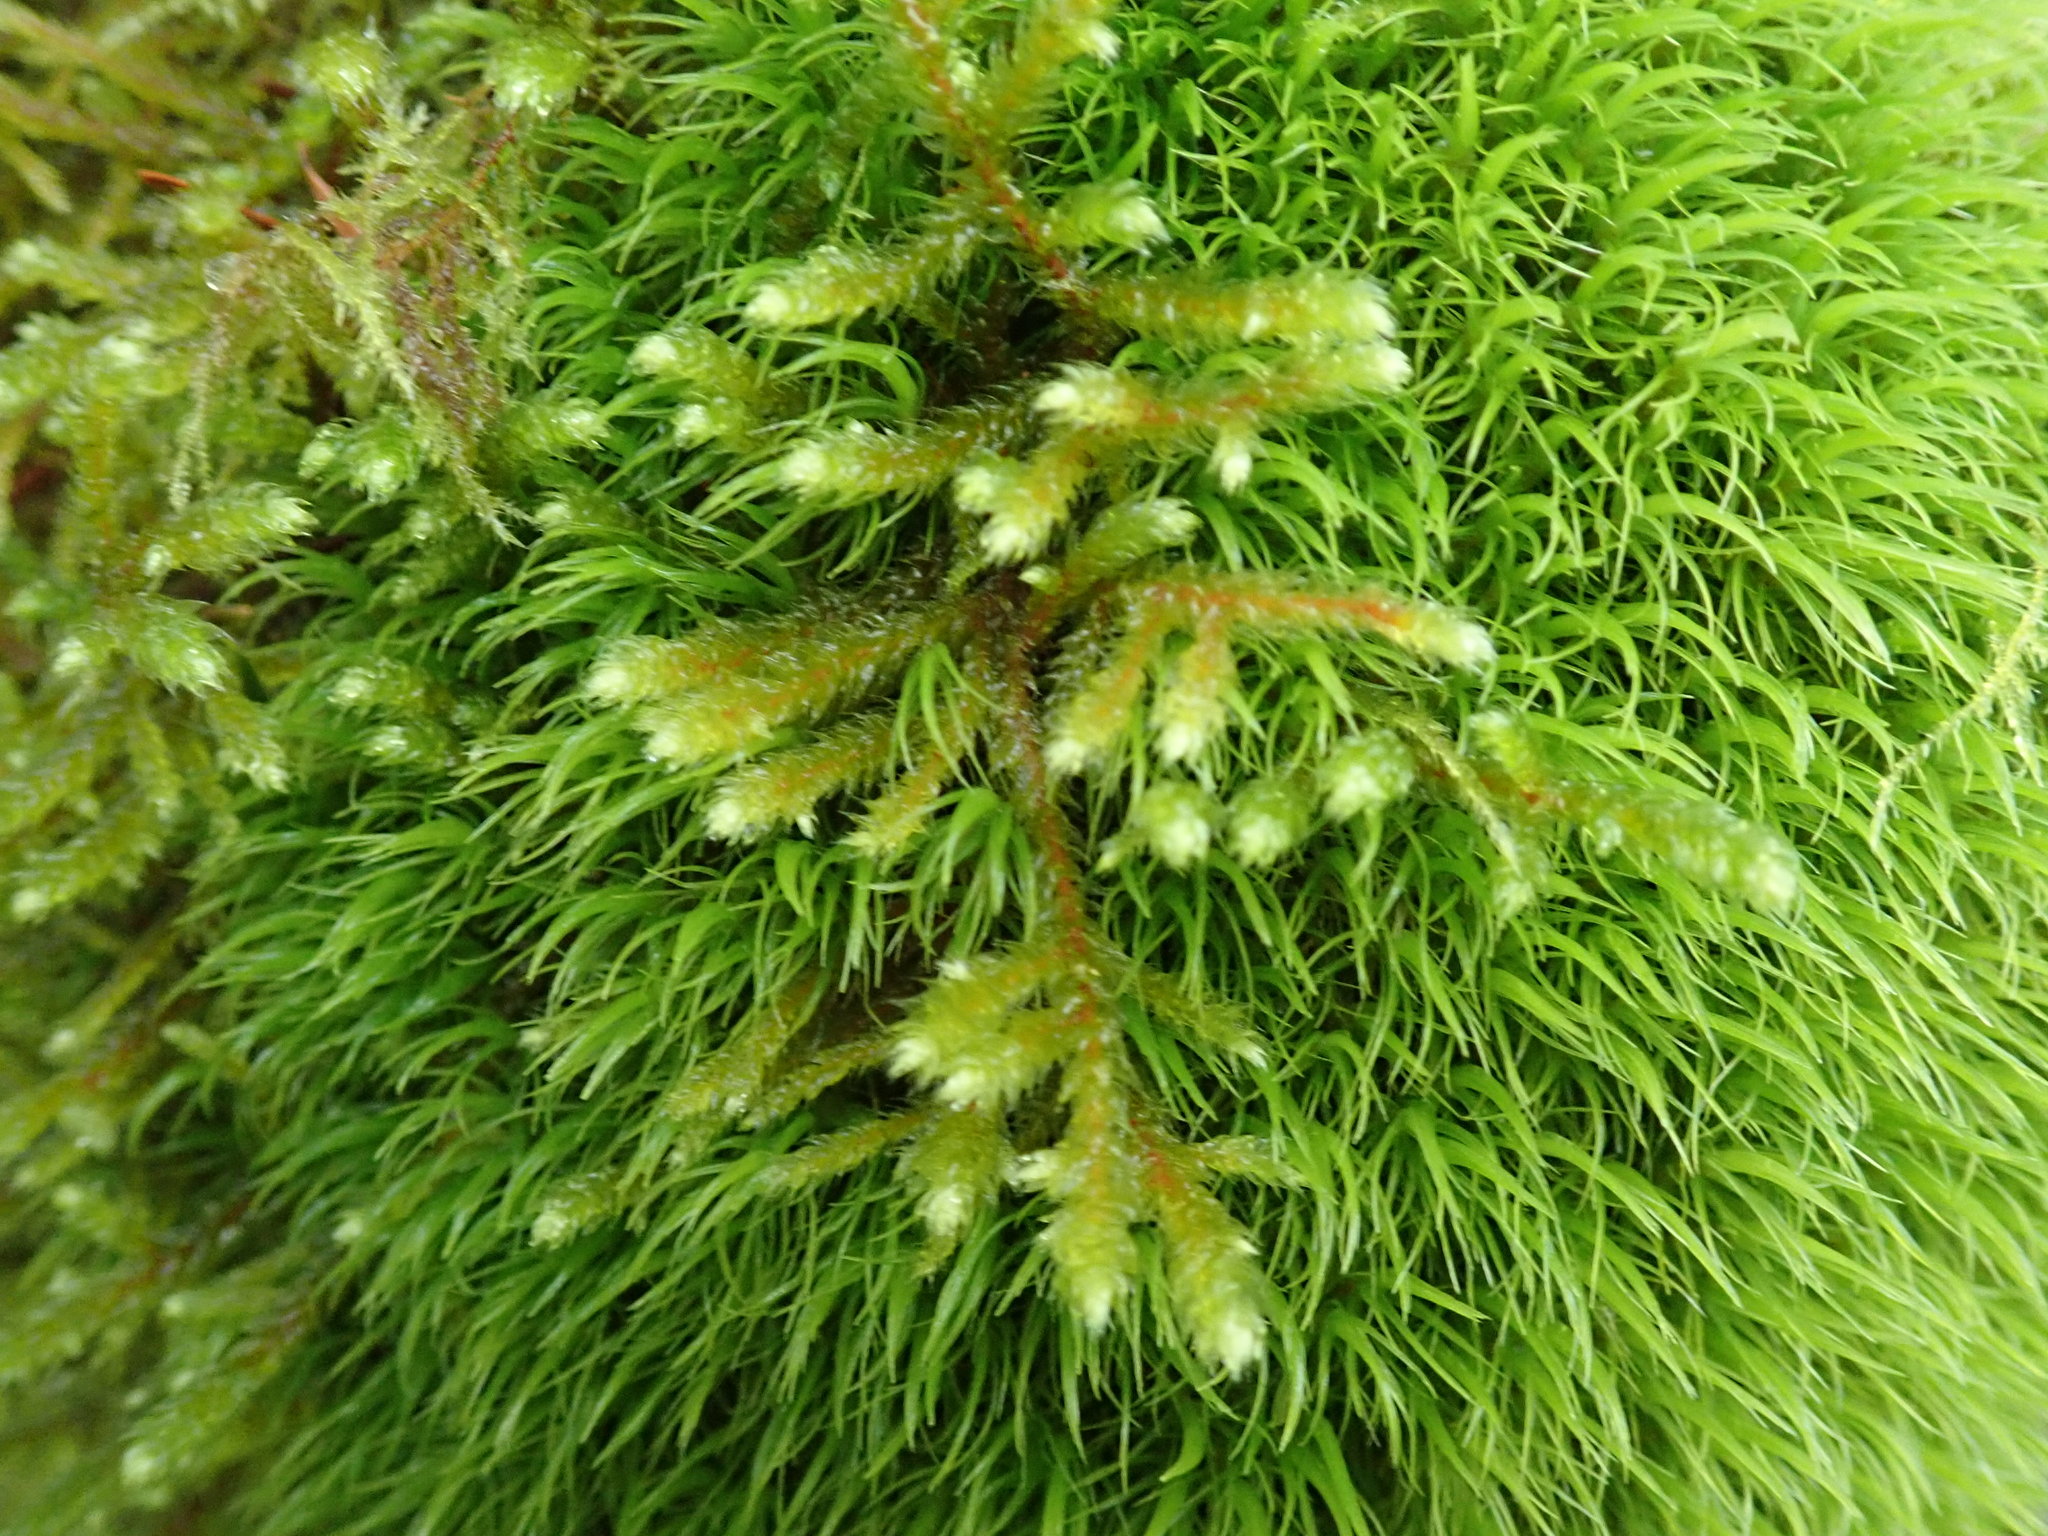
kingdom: Plantae
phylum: Bryophyta
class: Bryopsida
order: Hypnales
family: Antitrichiaceae
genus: Antitrichia
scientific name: Antitrichia curtipendula
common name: Pendulous wing-moss
